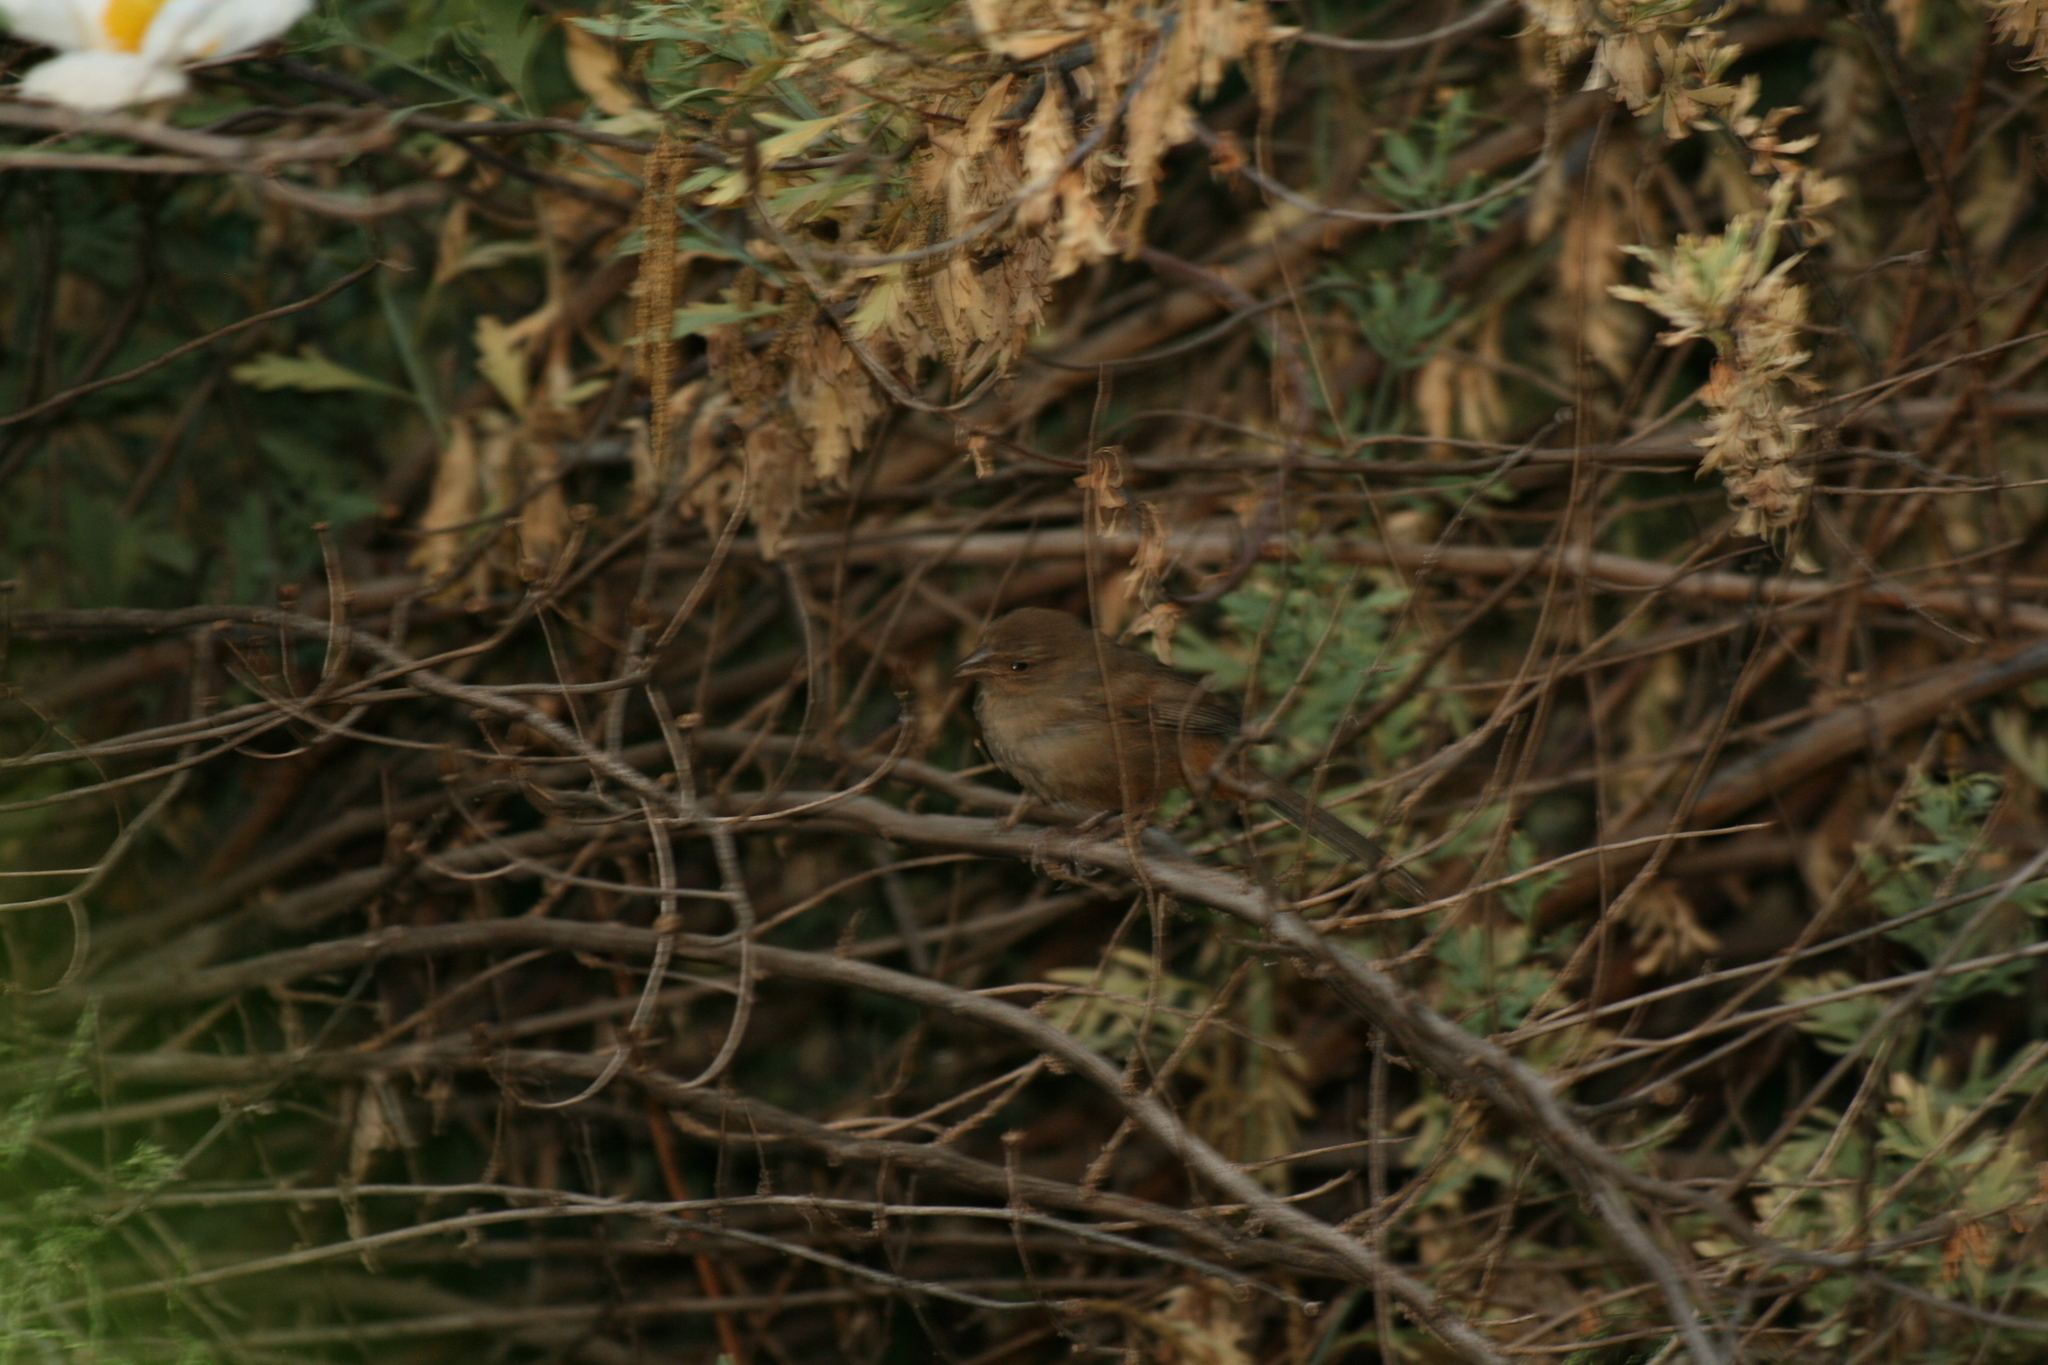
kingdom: Animalia
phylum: Chordata
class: Aves
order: Passeriformes
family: Passerellidae
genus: Melozone
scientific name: Melozone crissalis
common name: California towhee
